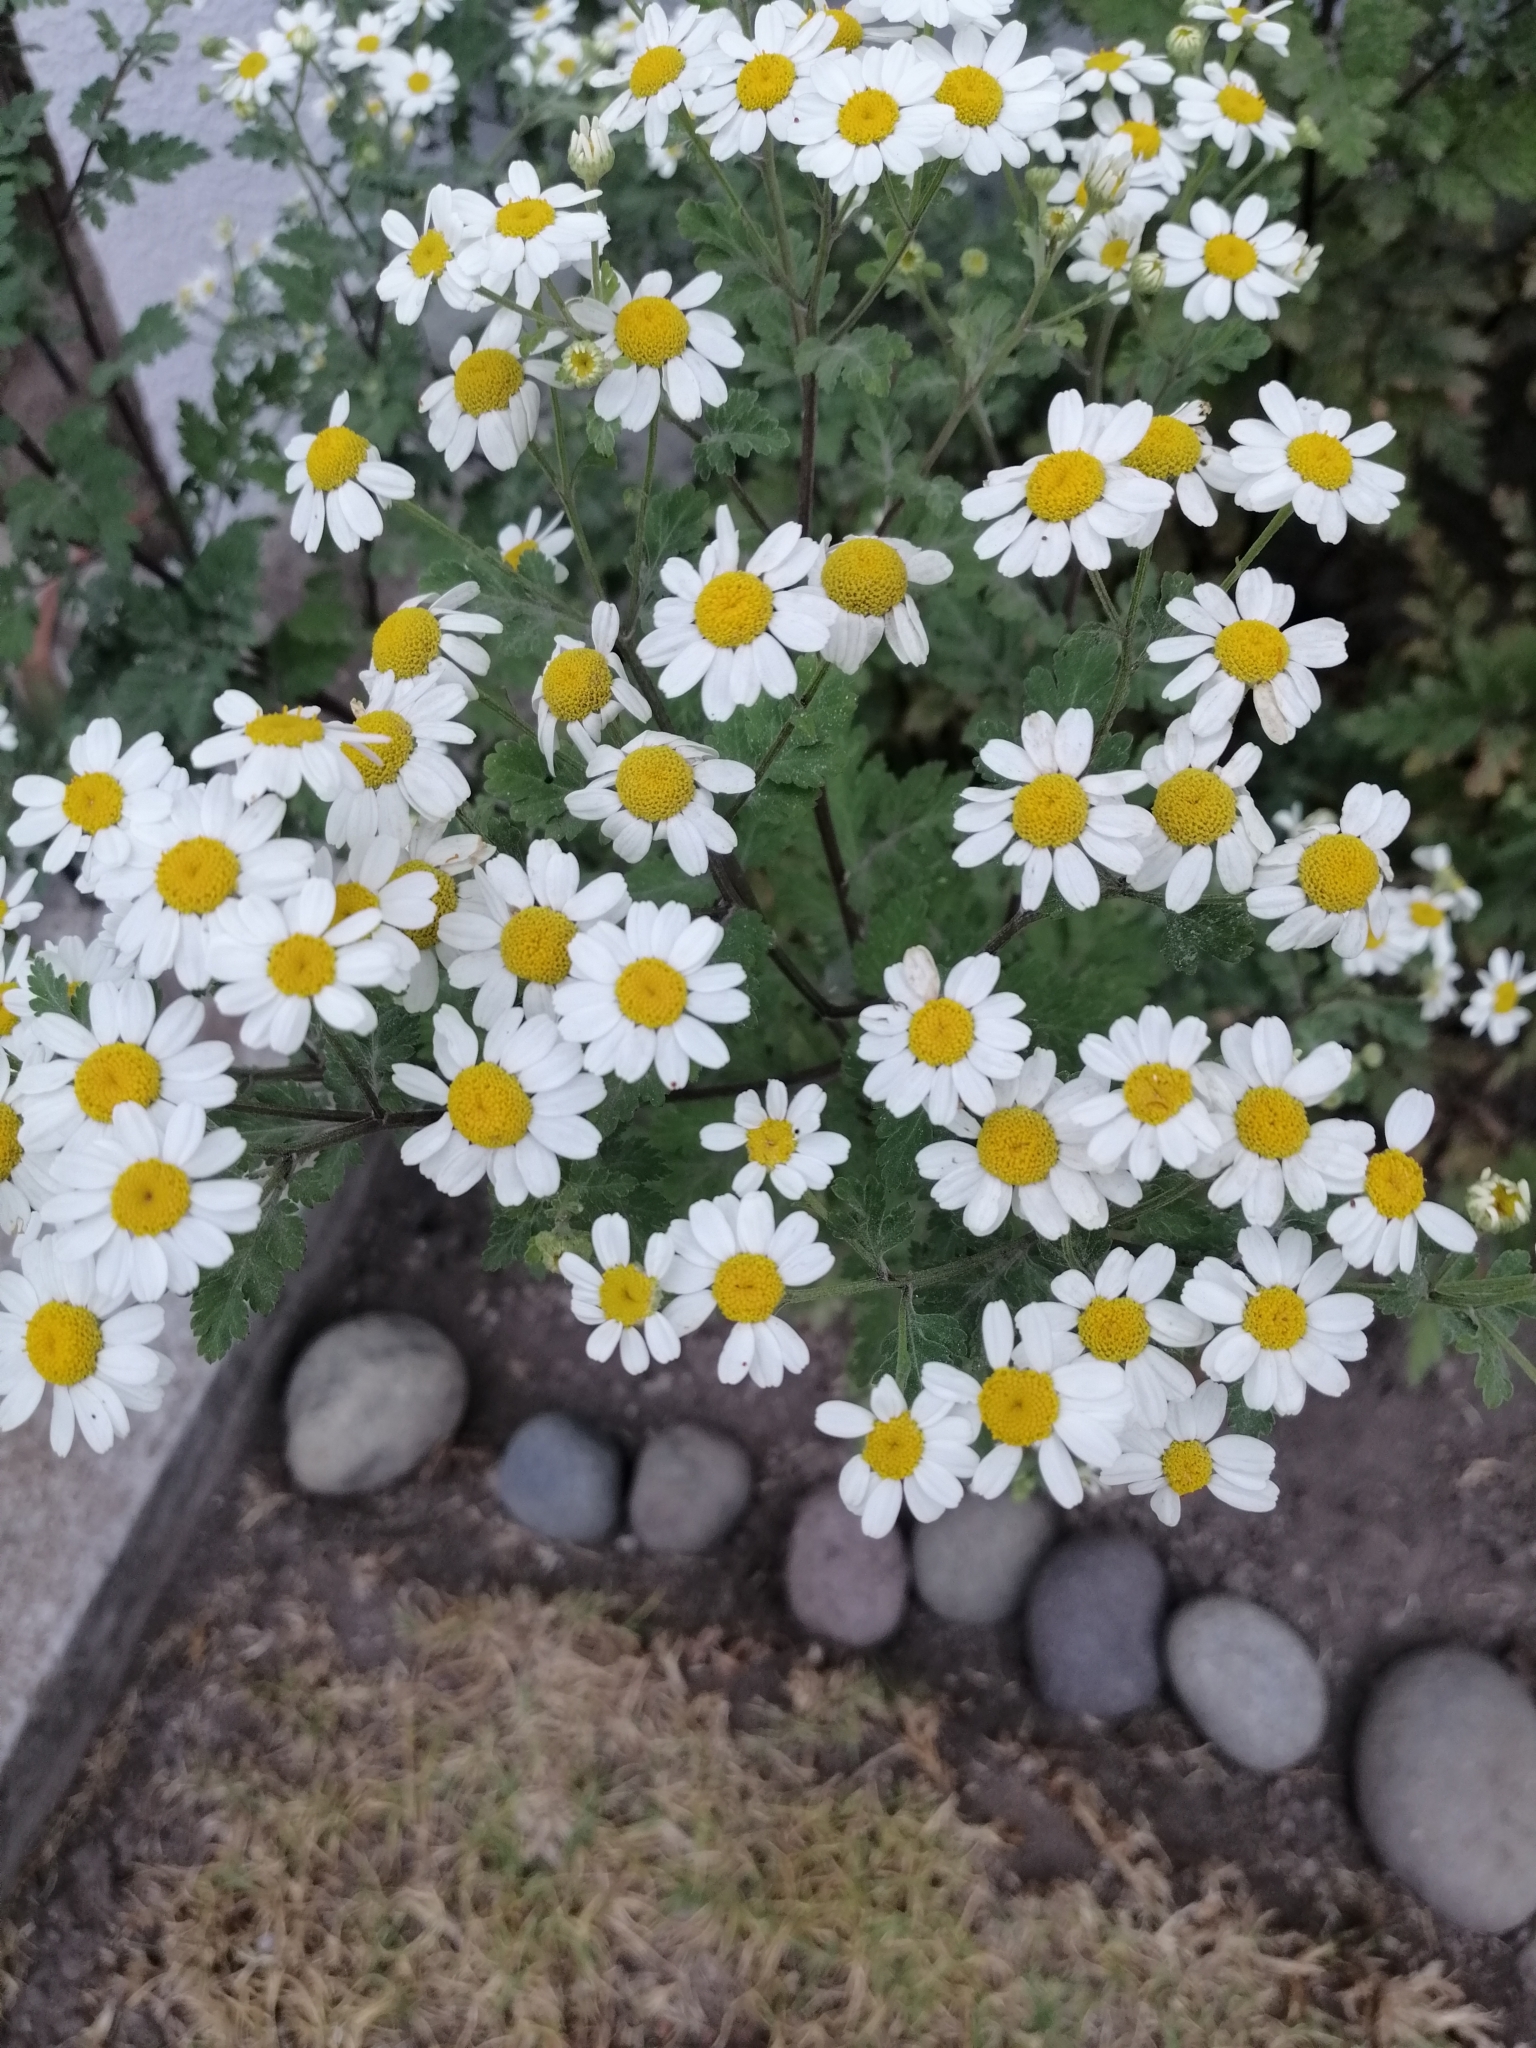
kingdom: Plantae
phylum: Tracheophyta
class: Magnoliopsida
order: Asterales
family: Asteraceae
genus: Tanacetum
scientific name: Tanacetum parthenium
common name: Feverfew
